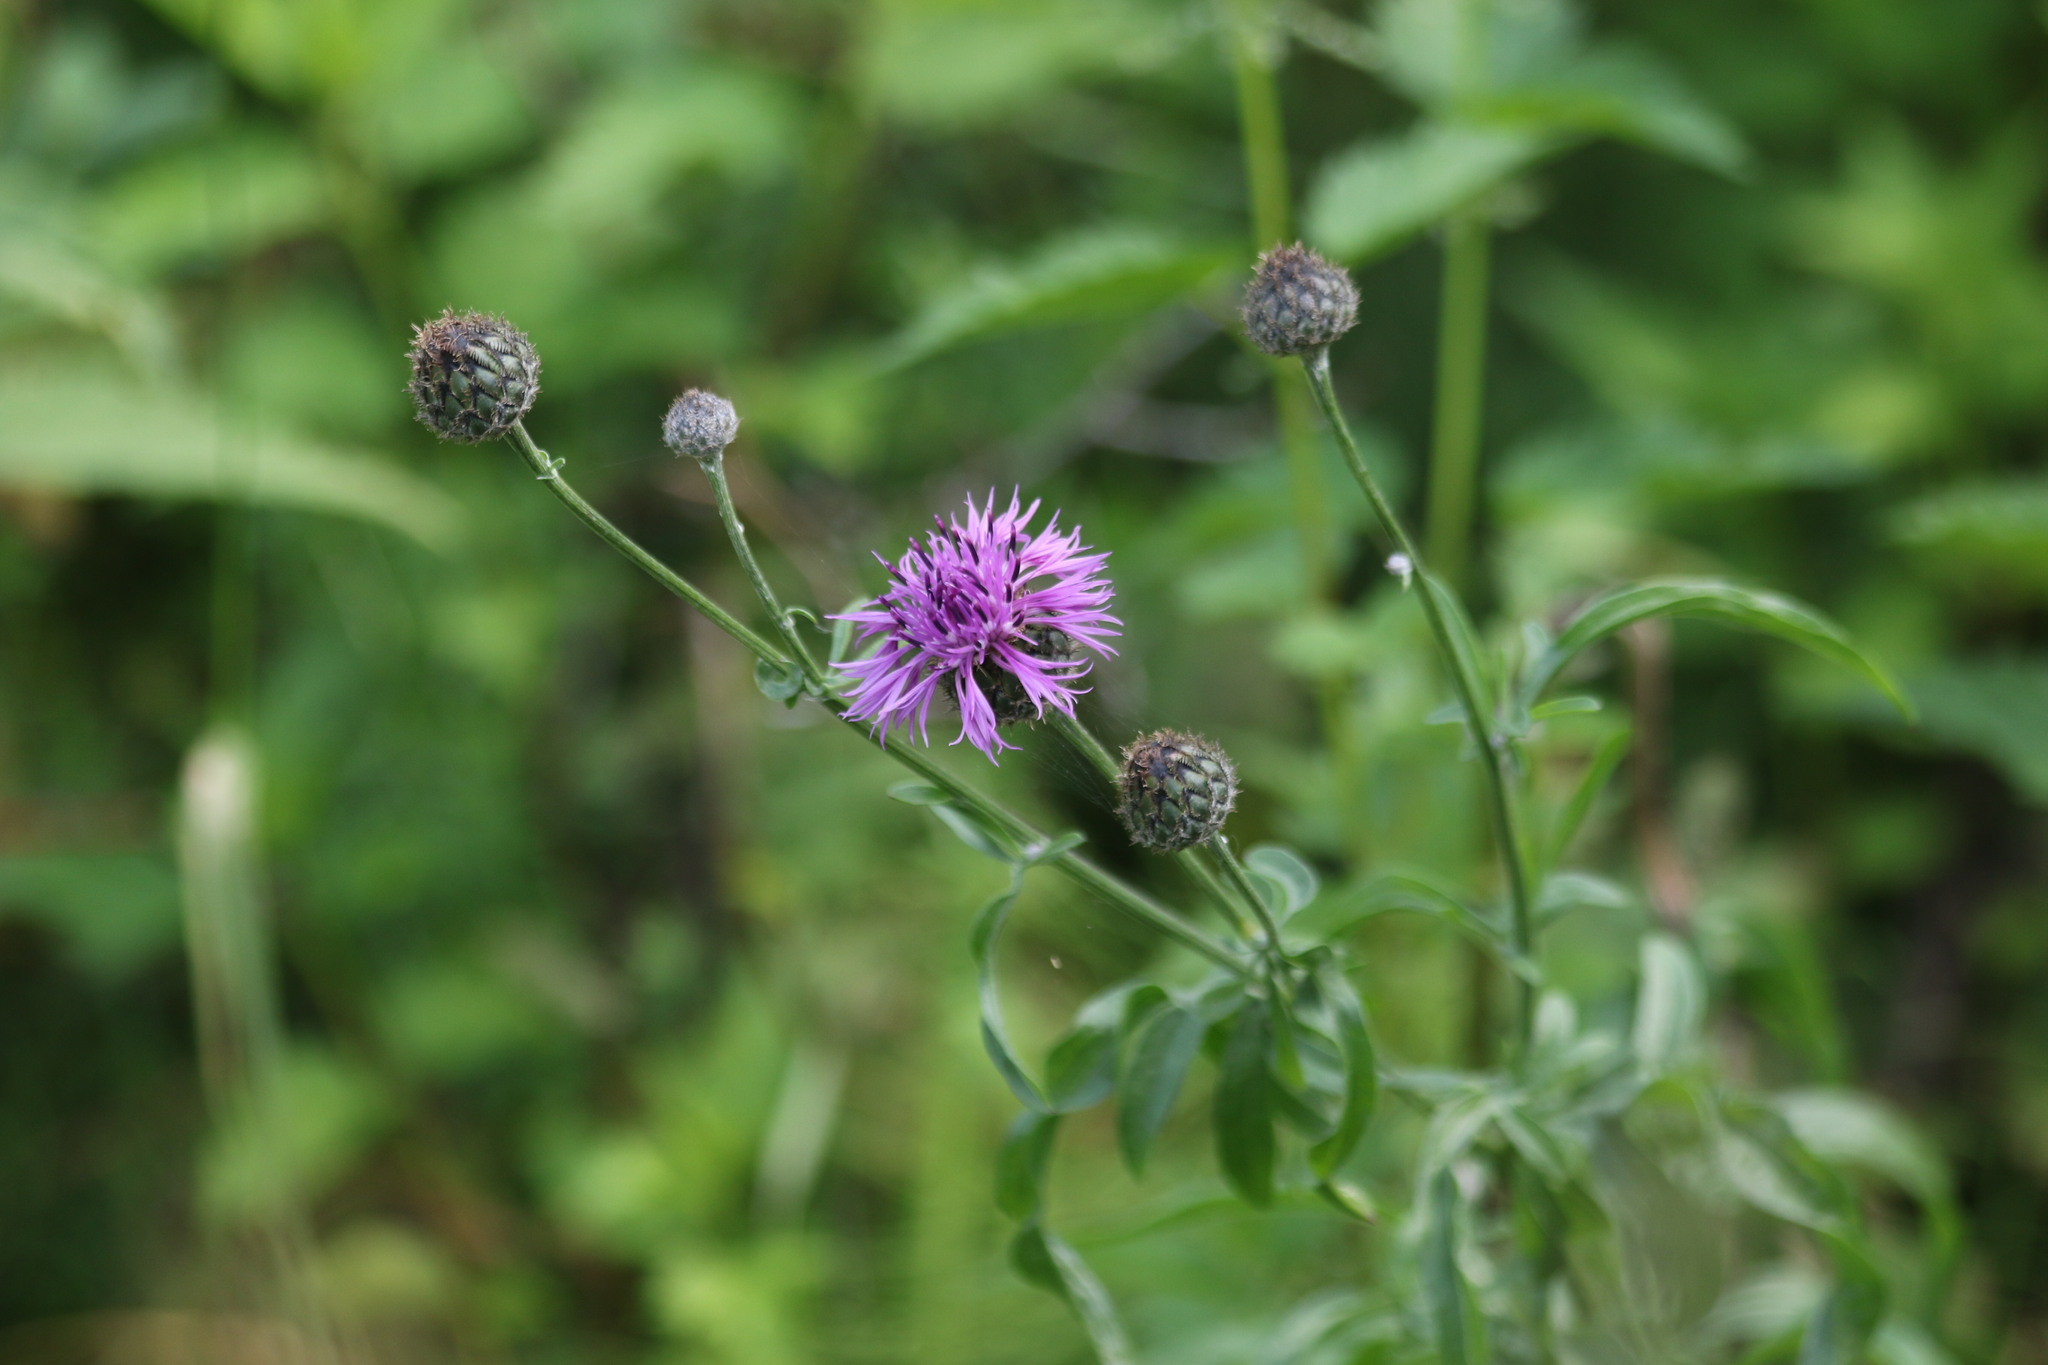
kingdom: Plantae
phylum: Tracheophyta
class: Magnoliopsida
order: Asterales
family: Asteraceae
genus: Centaurea
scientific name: Centaurea scabiosa
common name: Greater knapweed
